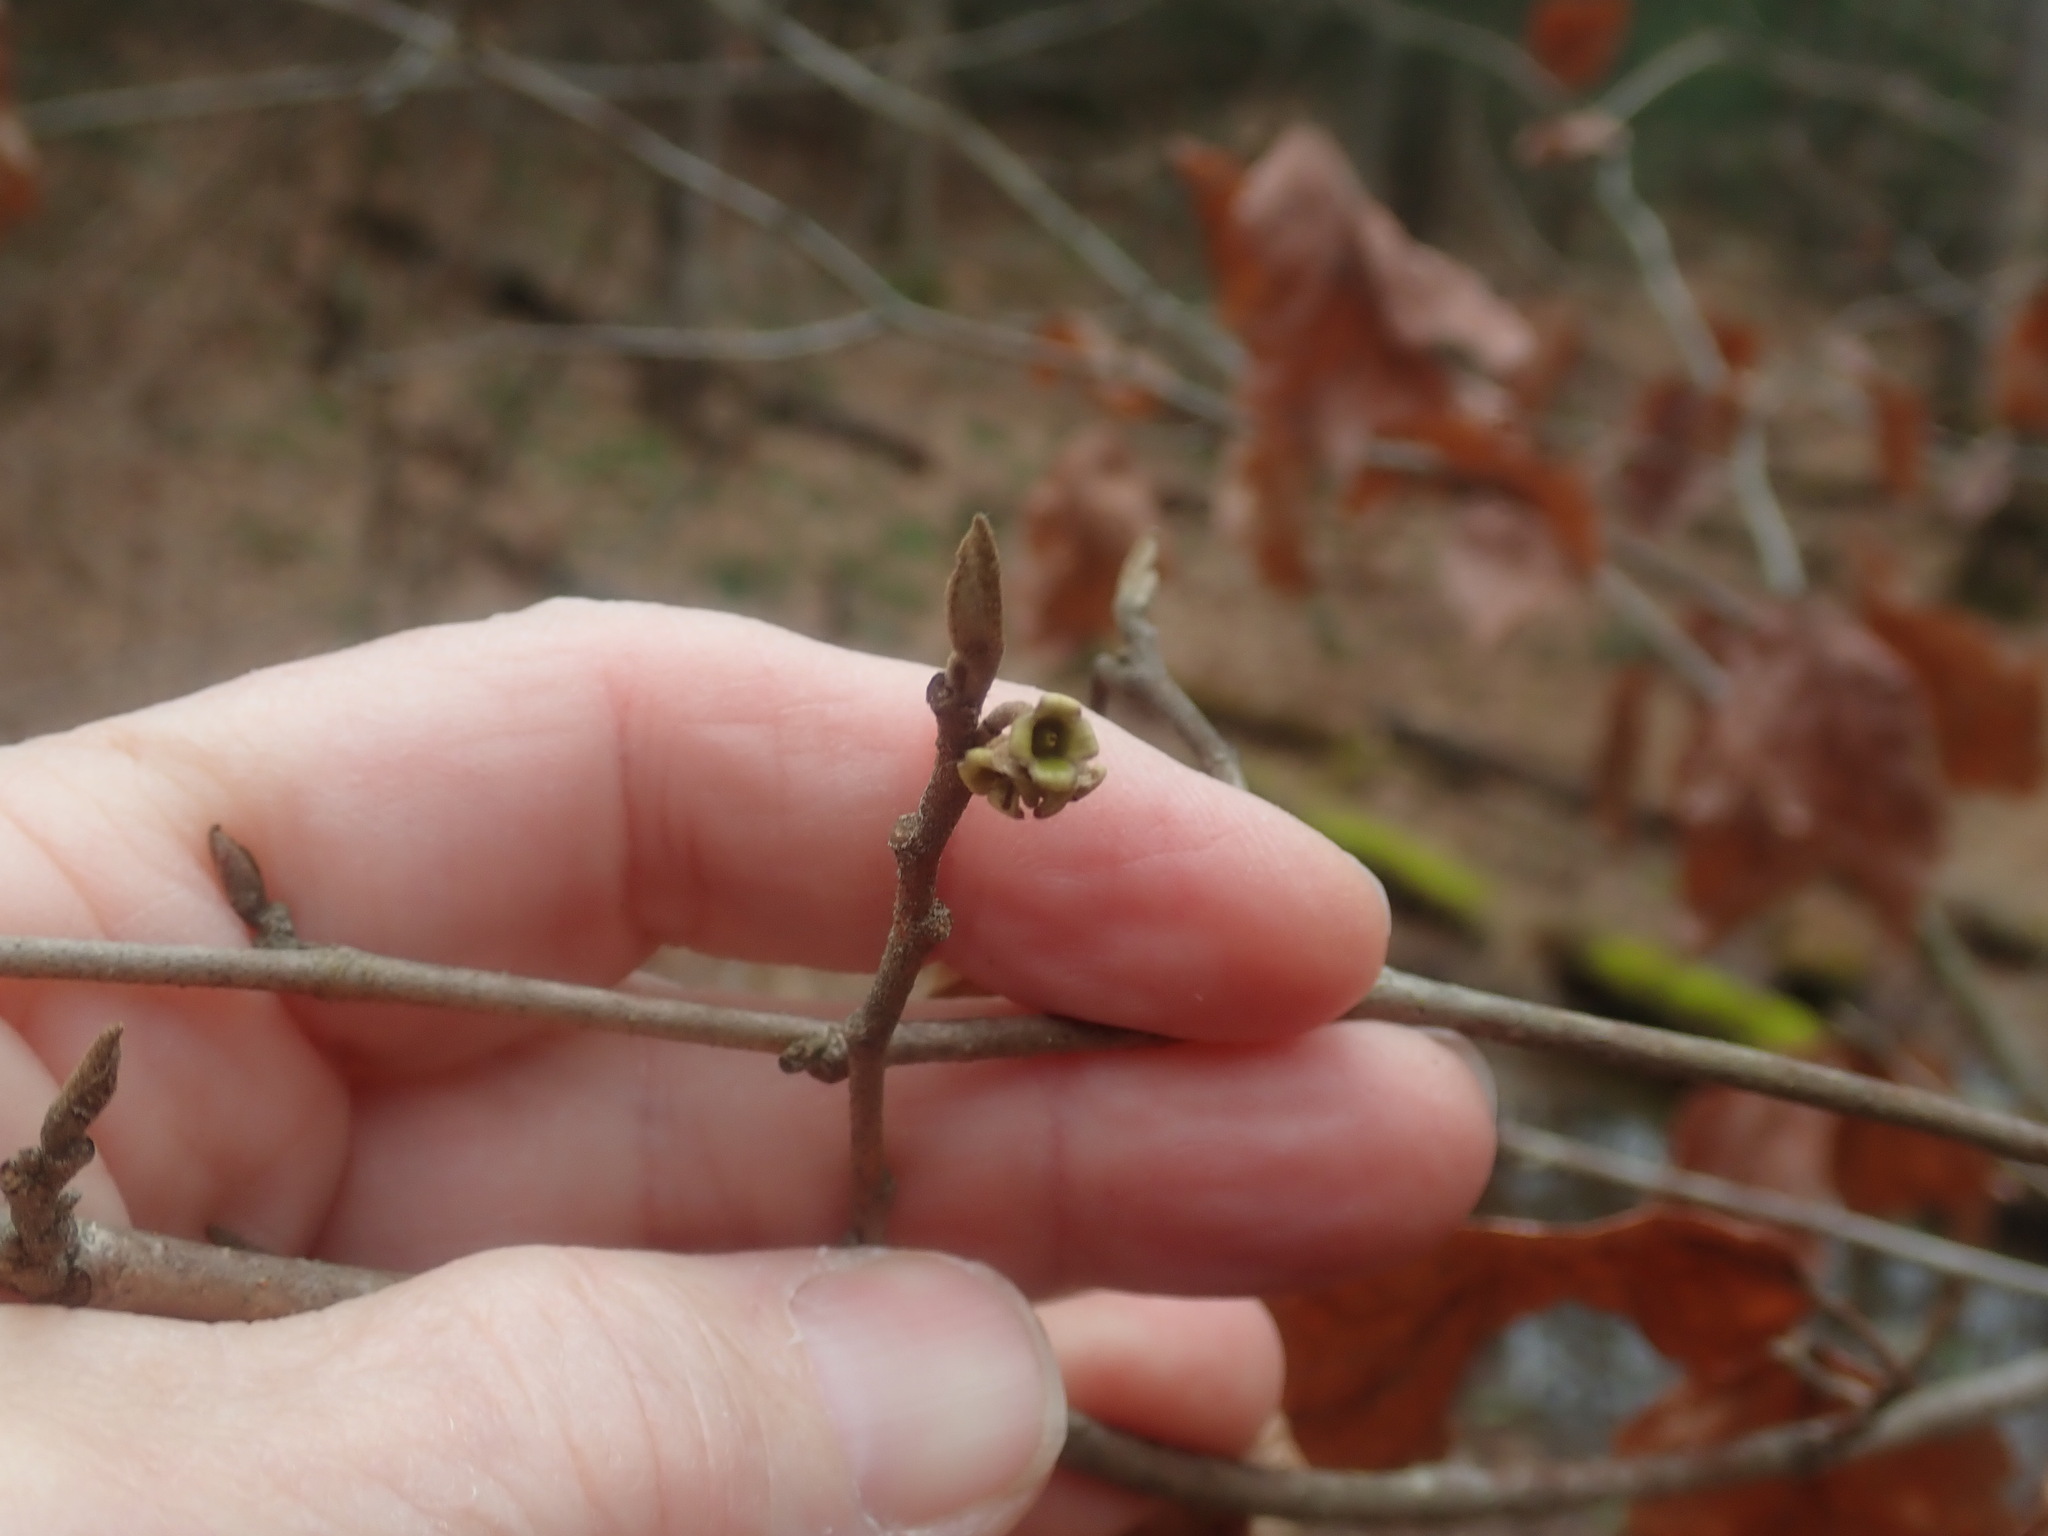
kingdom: Plantae
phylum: Tracheophyta
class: Magnoliopsida
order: Saxifragales
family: Hamamelidaceae
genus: Hamamelis
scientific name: Hamamelis virginiana
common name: Witch-hazel
